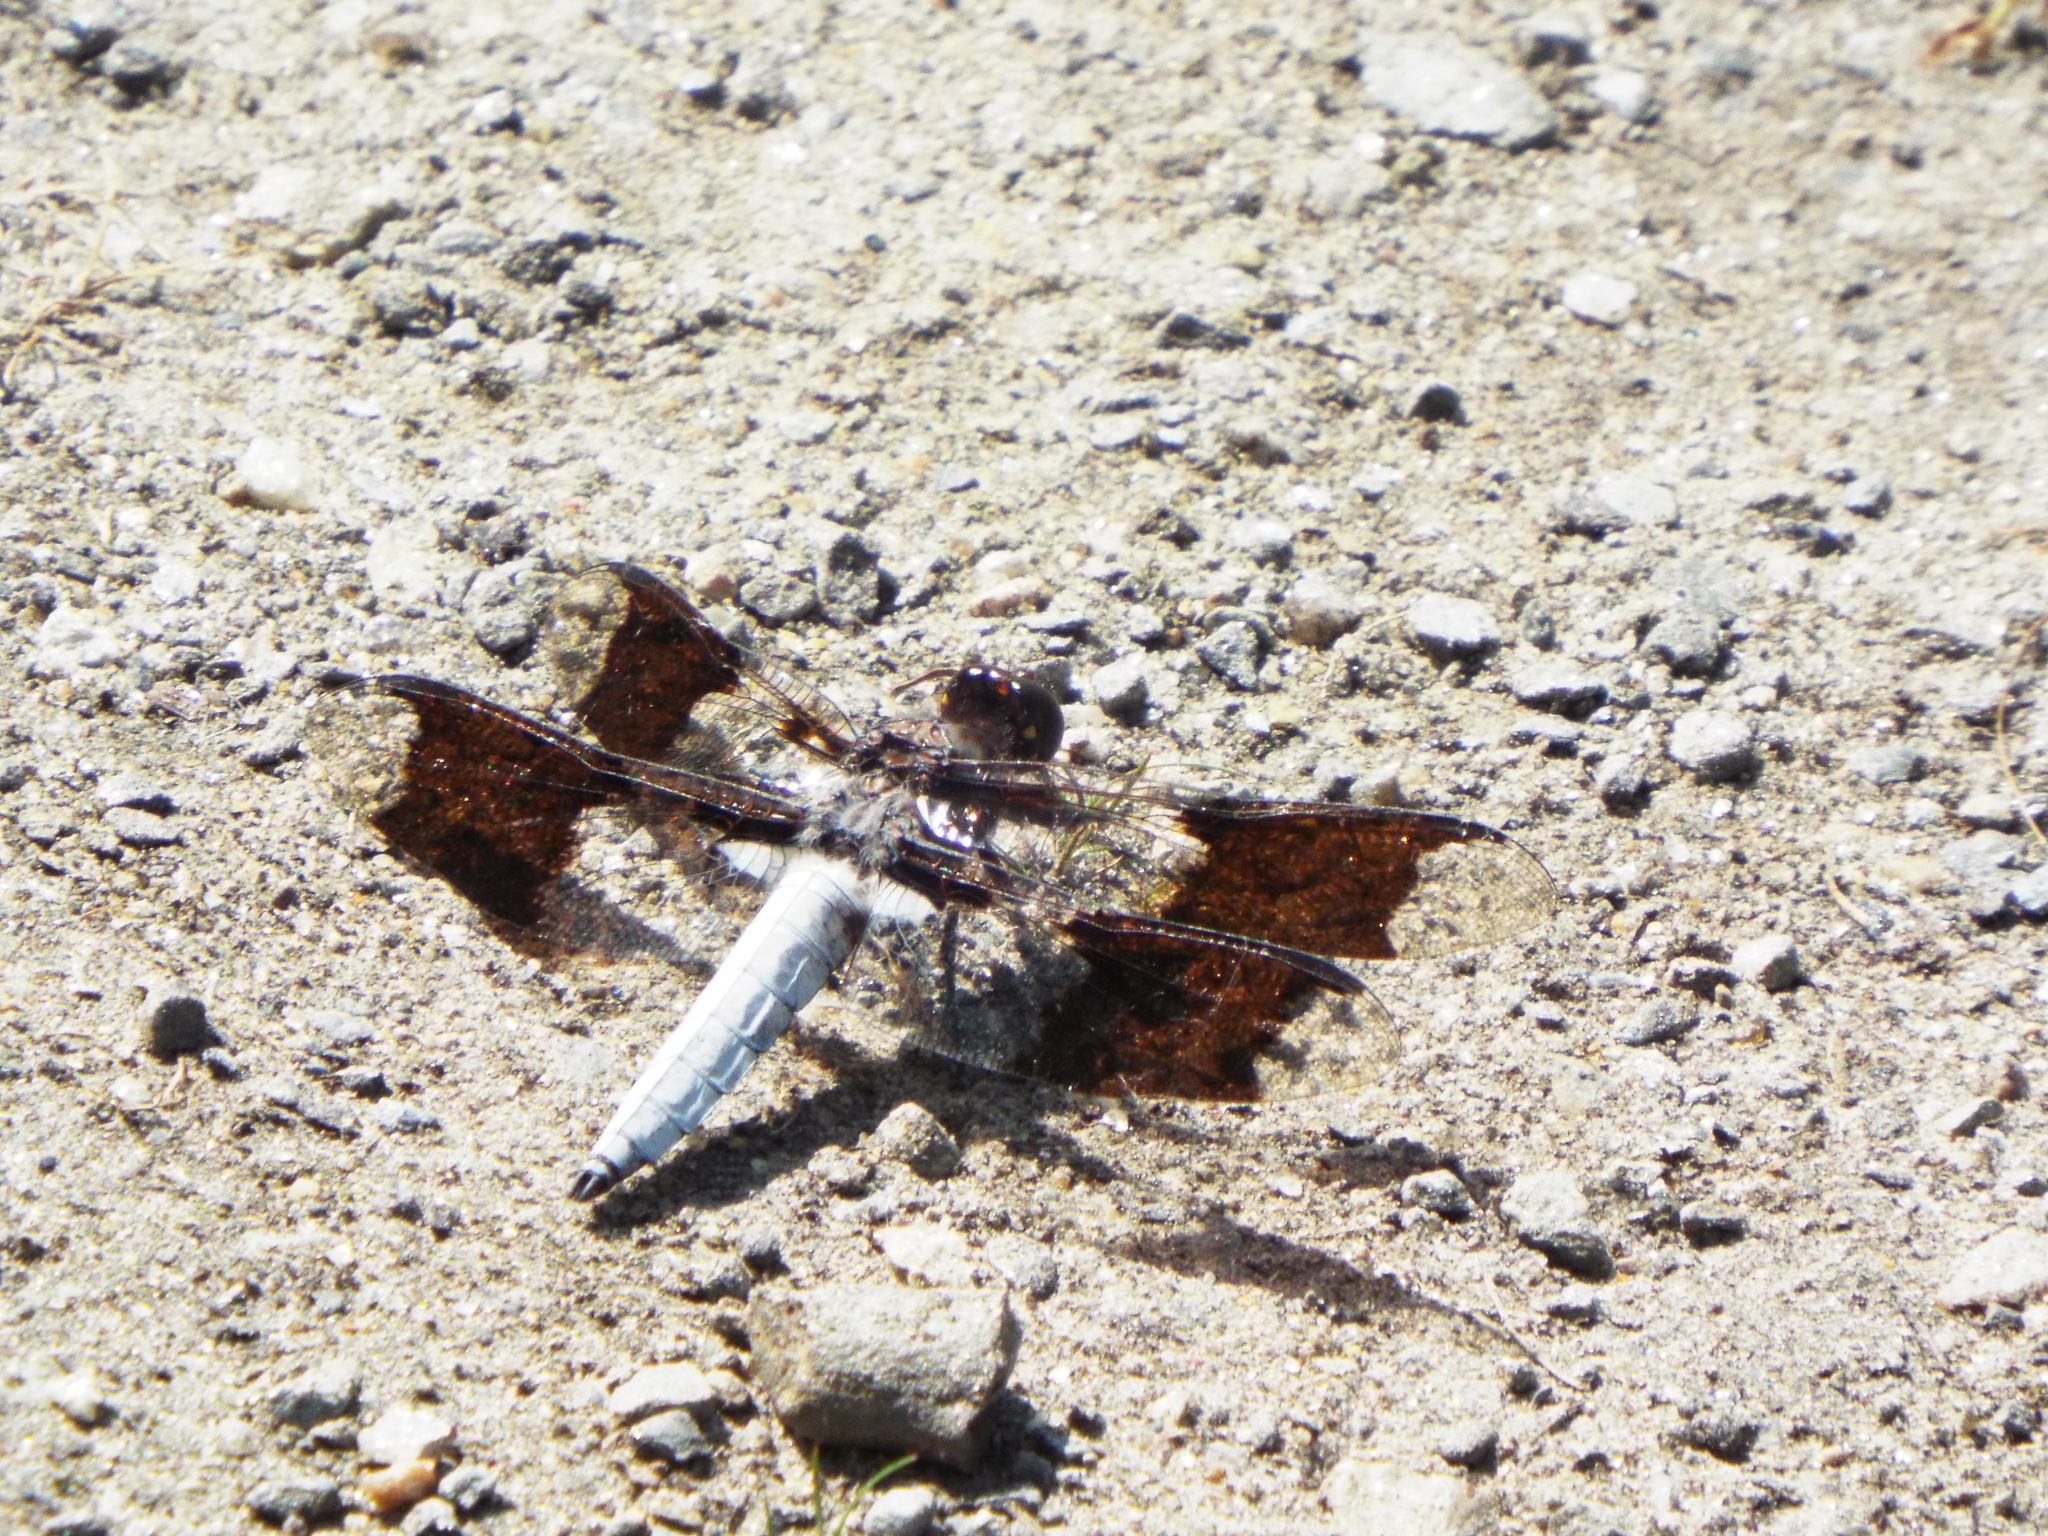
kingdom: Animalia
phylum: Arthropoda
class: Insecta
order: Odonata
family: Libellulidae
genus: Plathemis
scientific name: Plathemis lydia
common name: Common whitetail
